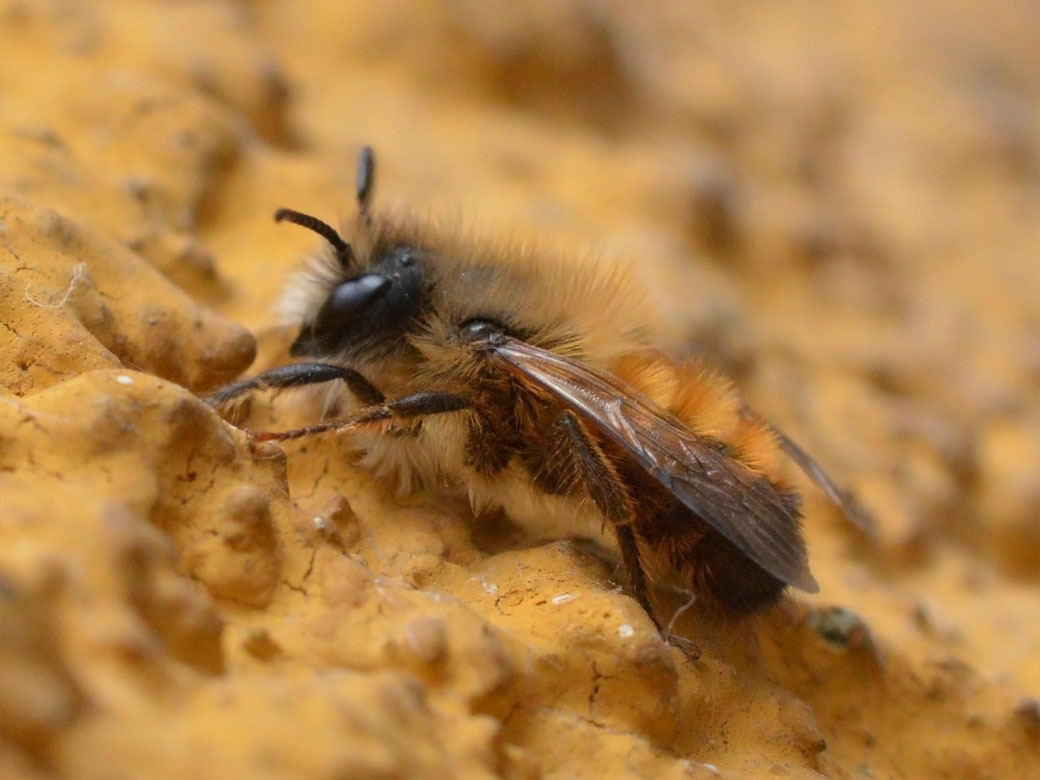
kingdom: Animalia
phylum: Arthropoda
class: Insecta
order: Hymenoptera
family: Megachilidae
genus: Osmia
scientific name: Osmia bicornis
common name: Red mason bee
